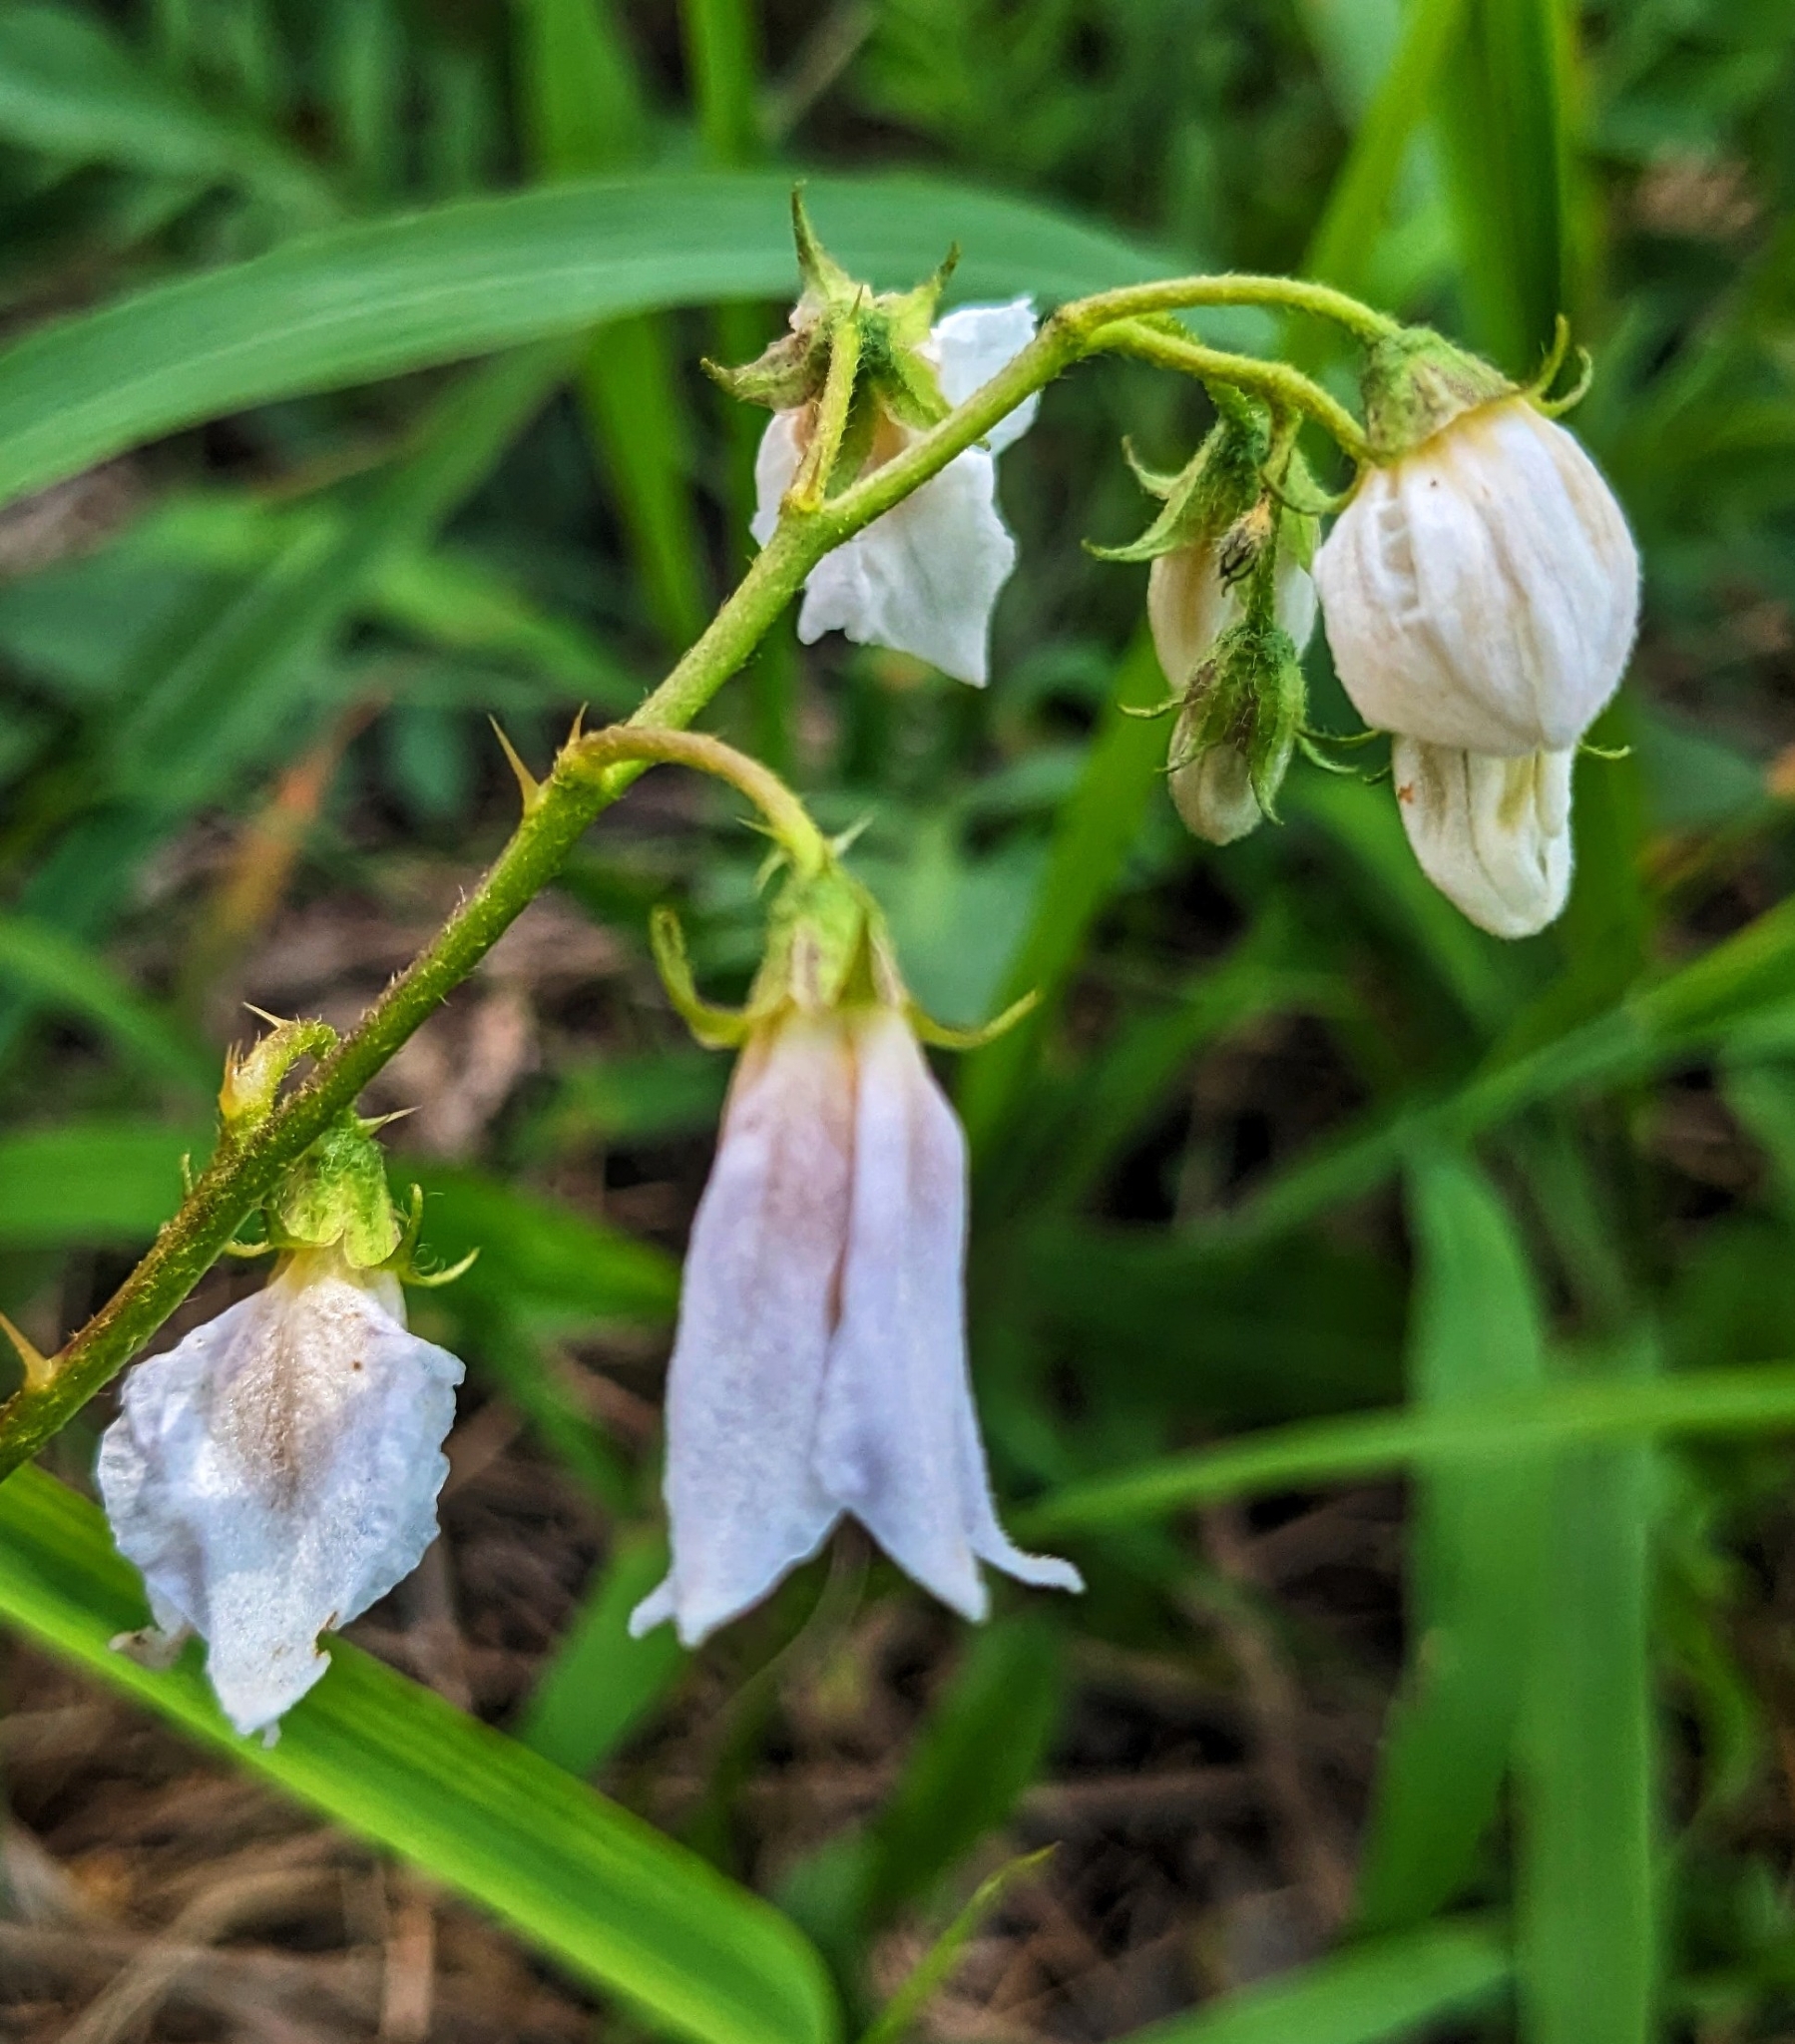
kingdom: Plantae
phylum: Tracheophyta
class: Magnoliopsida
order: Solanales
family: Solanaceae
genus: Solanum
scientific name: Solanum carolinense
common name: Horse-nettle
